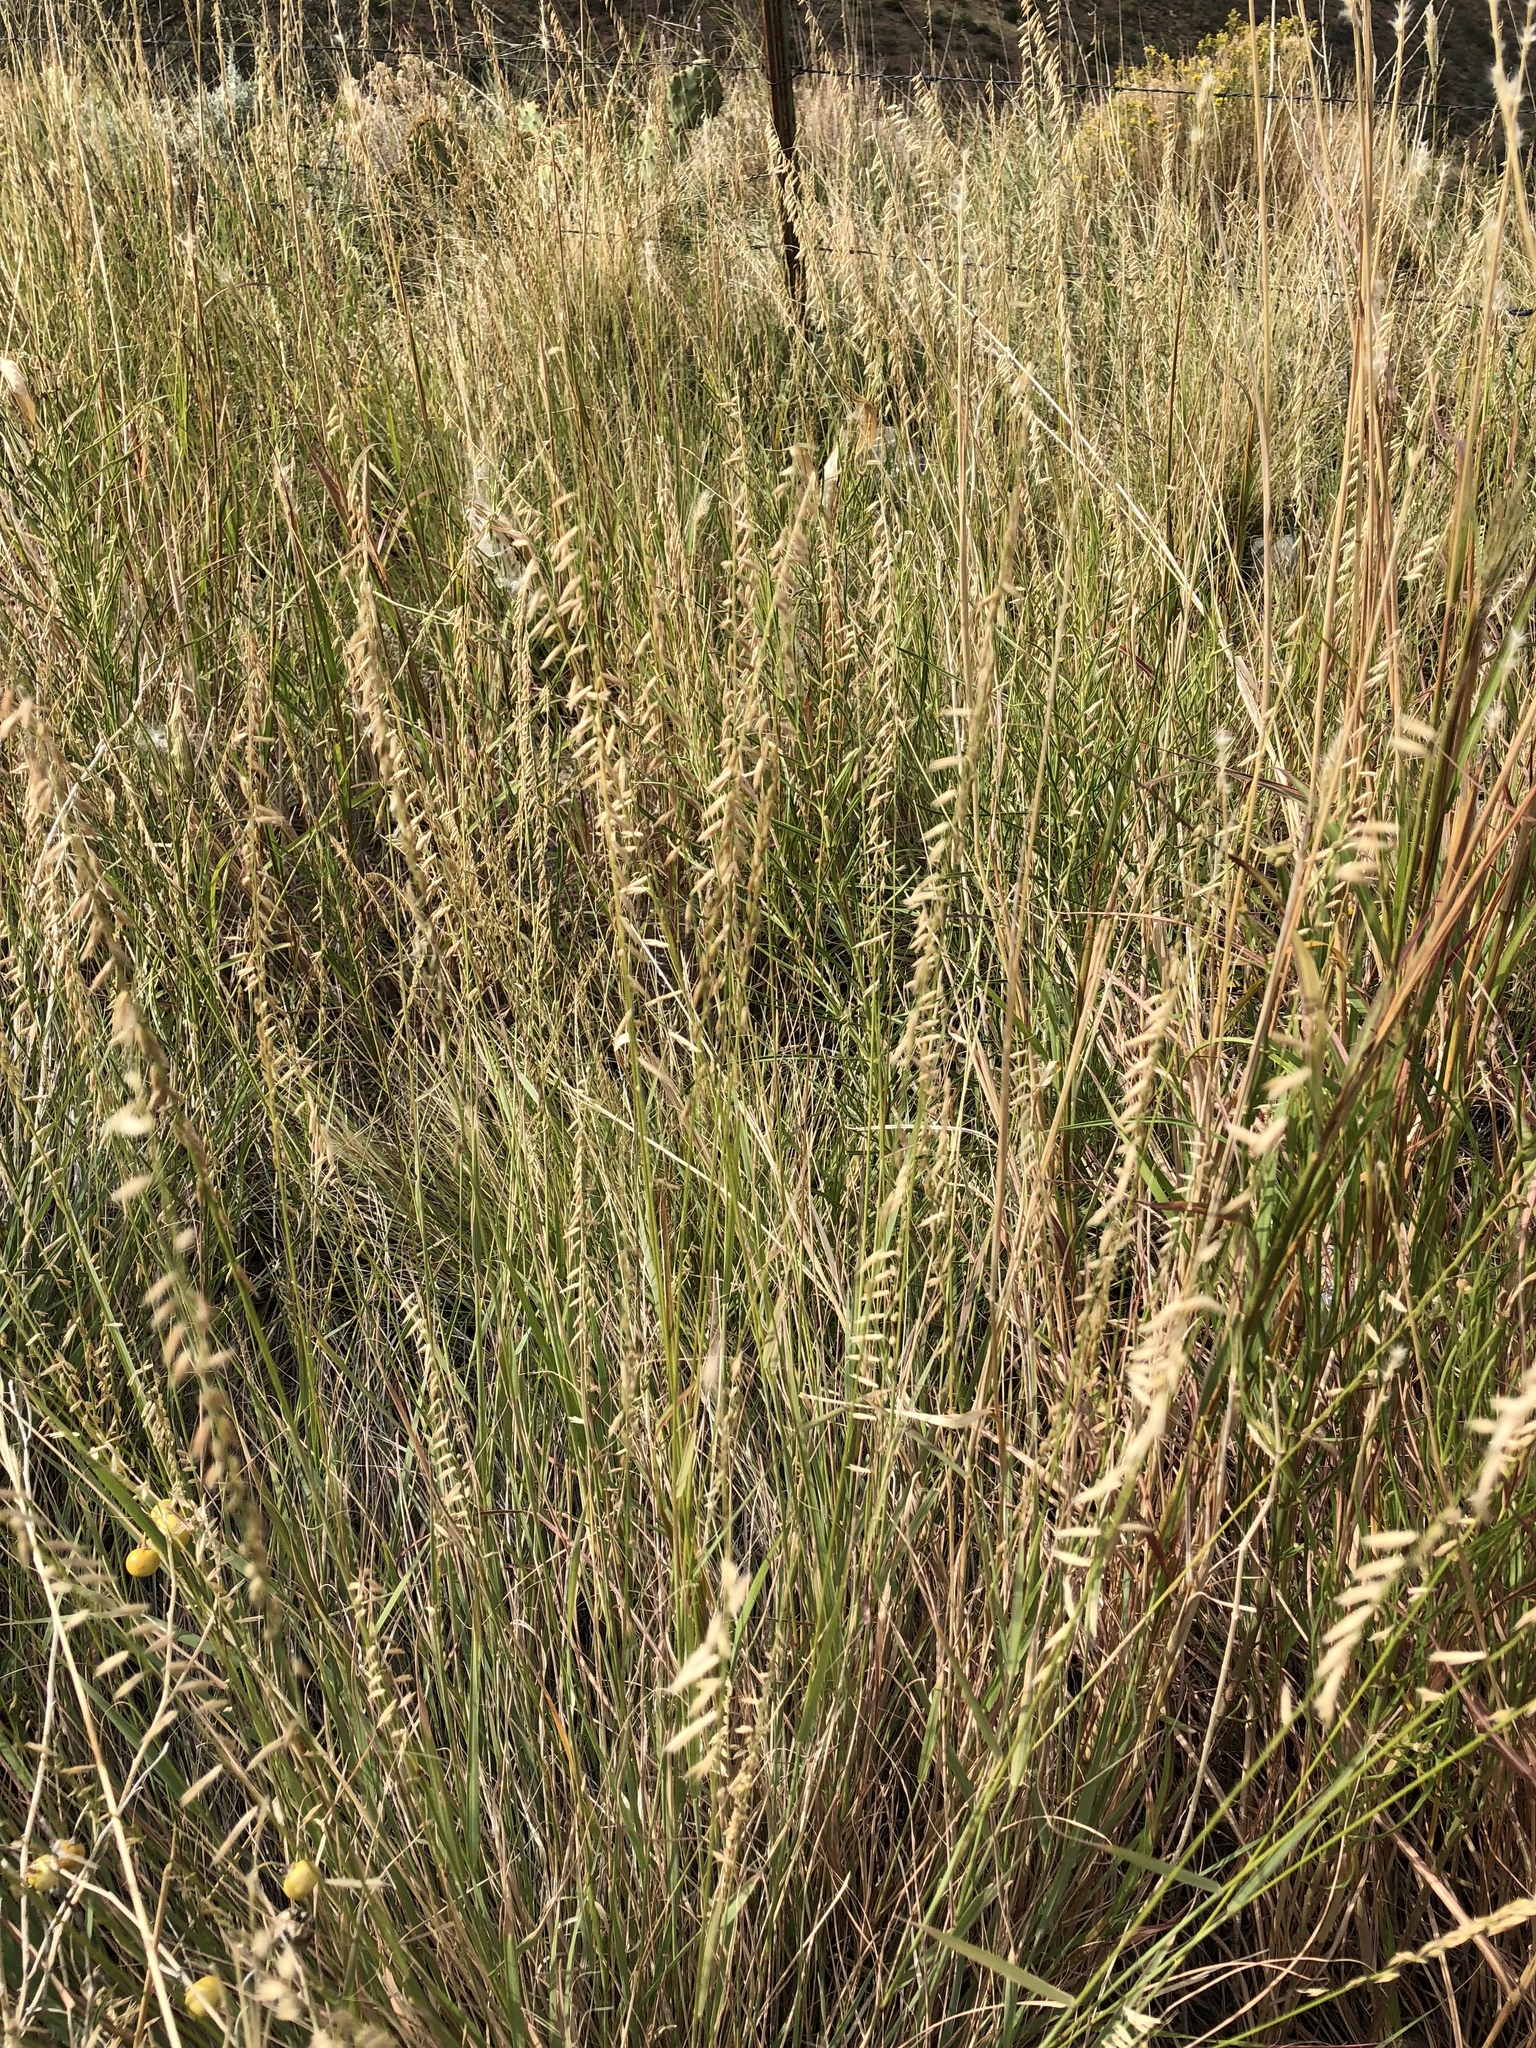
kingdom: Plantae
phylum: Tracheophyta
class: Liliopsida
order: Poales
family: Poaceae
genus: Bouteloua
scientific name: Bouteloua curtipendula
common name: Side-oats grama
